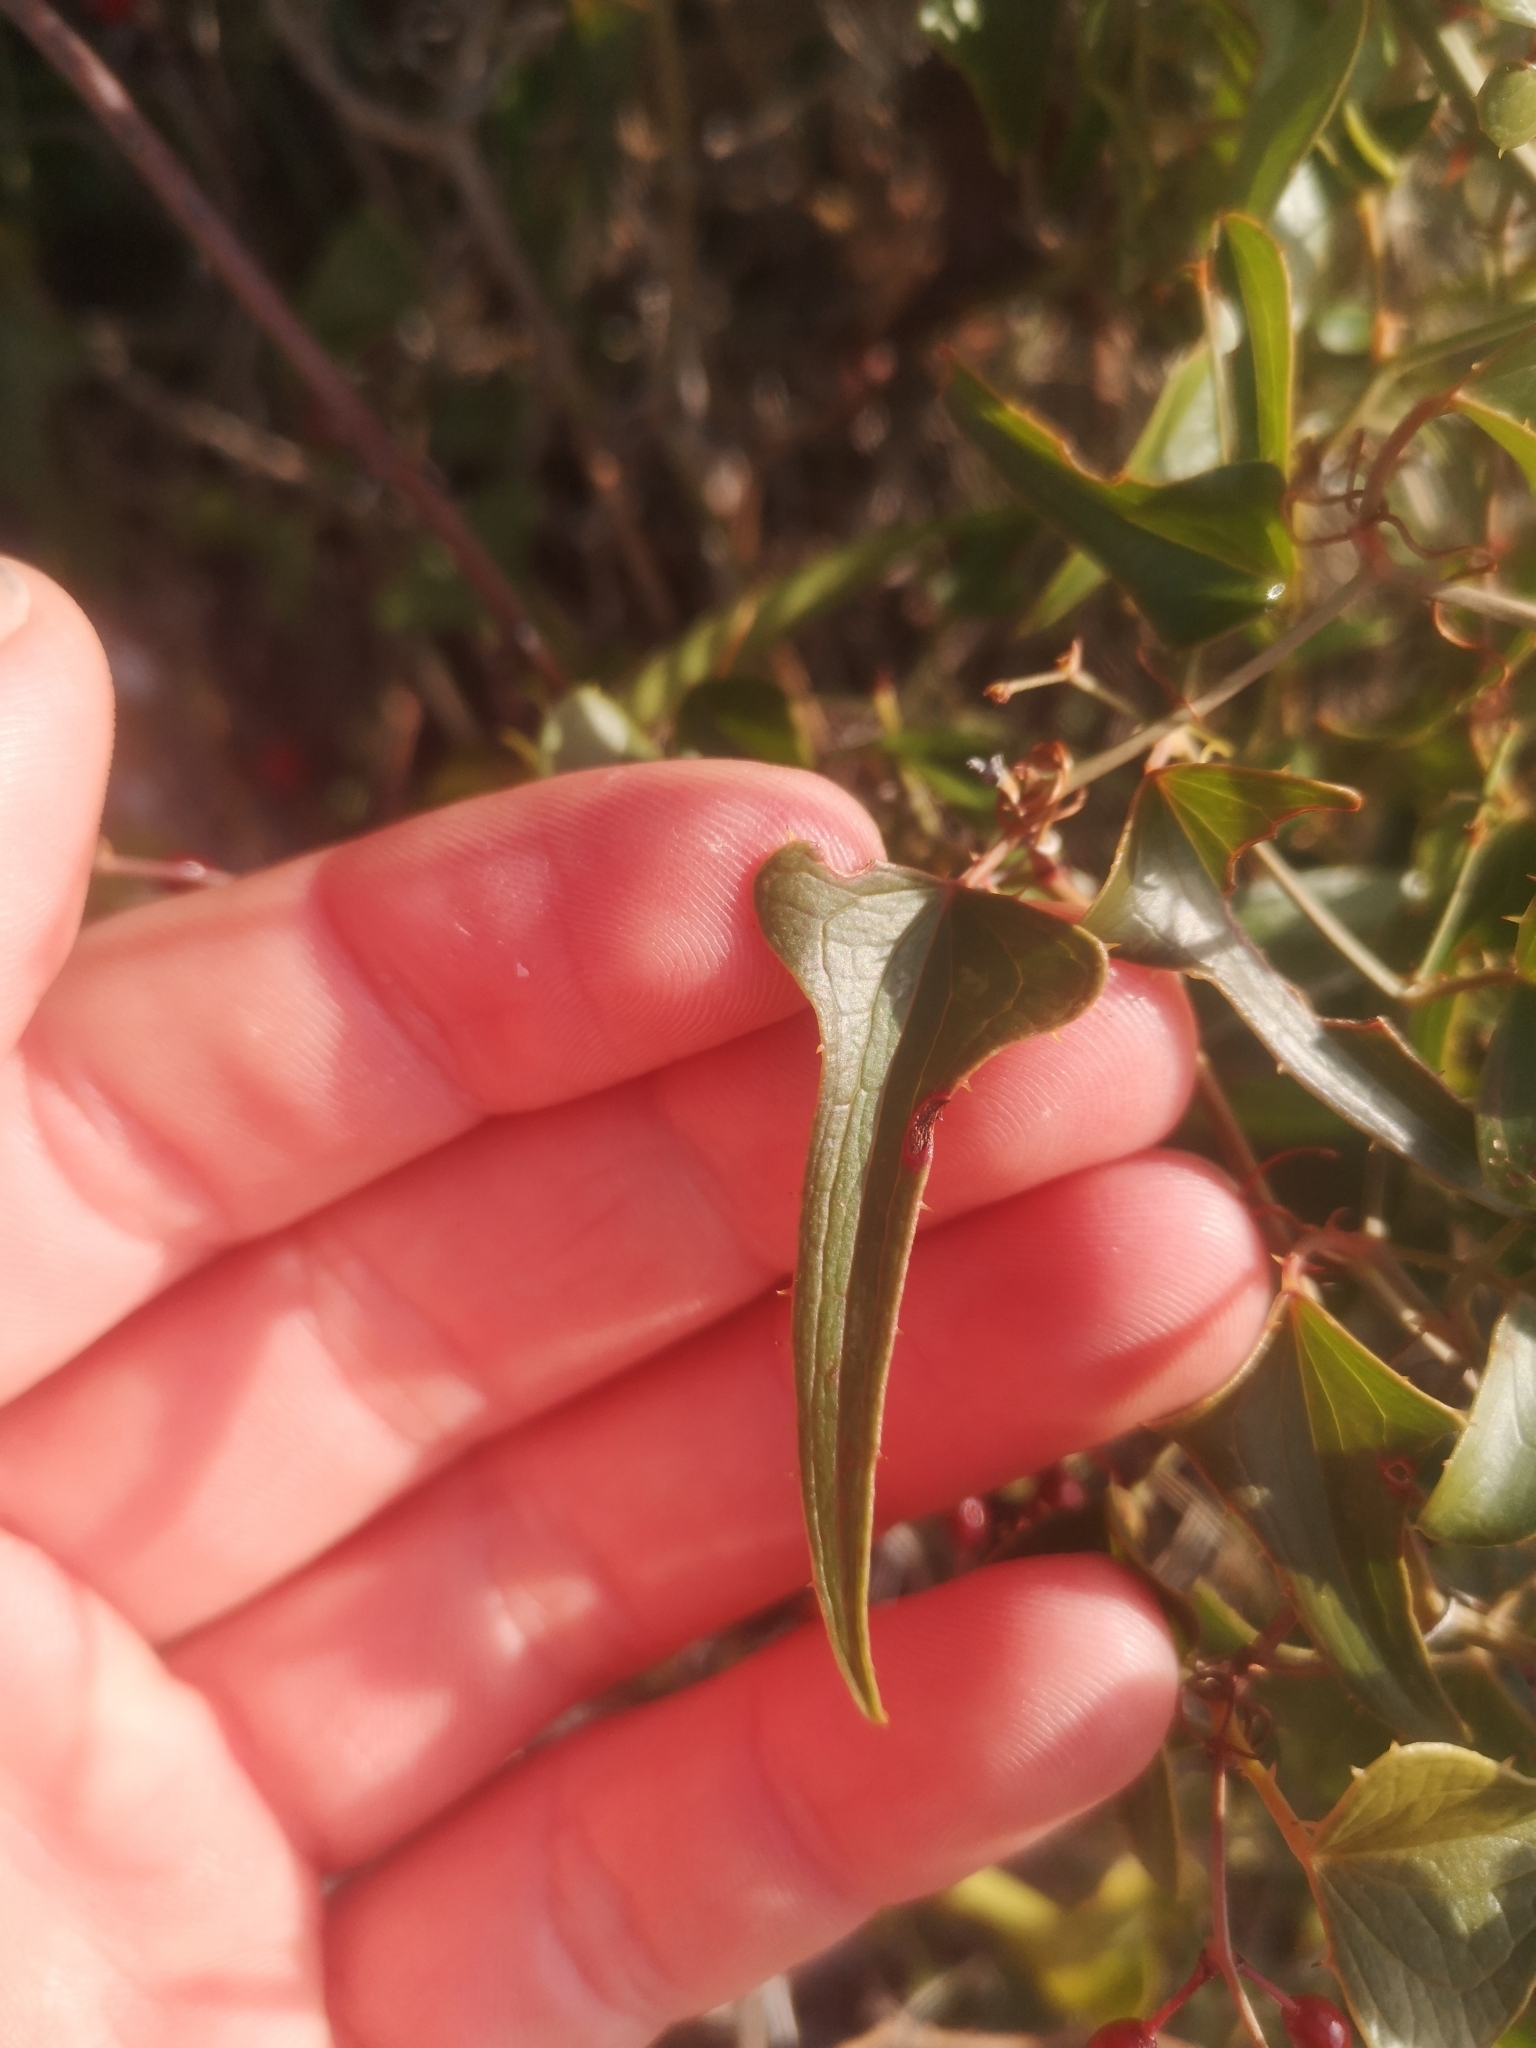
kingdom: Plantae
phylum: Tracheophyta
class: Liliopsida
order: Liliales
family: Smilacaceae
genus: Smilax
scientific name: Smilax aspera
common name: Common smilax
